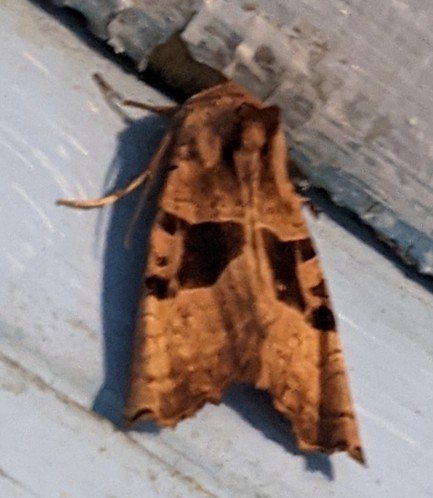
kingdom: Animalia
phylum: Arthropoda
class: Insecta
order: Lepidoptera
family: Noctuidae
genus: Phlogophora
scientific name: Phlogophora periculosa
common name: Brown angle shades
